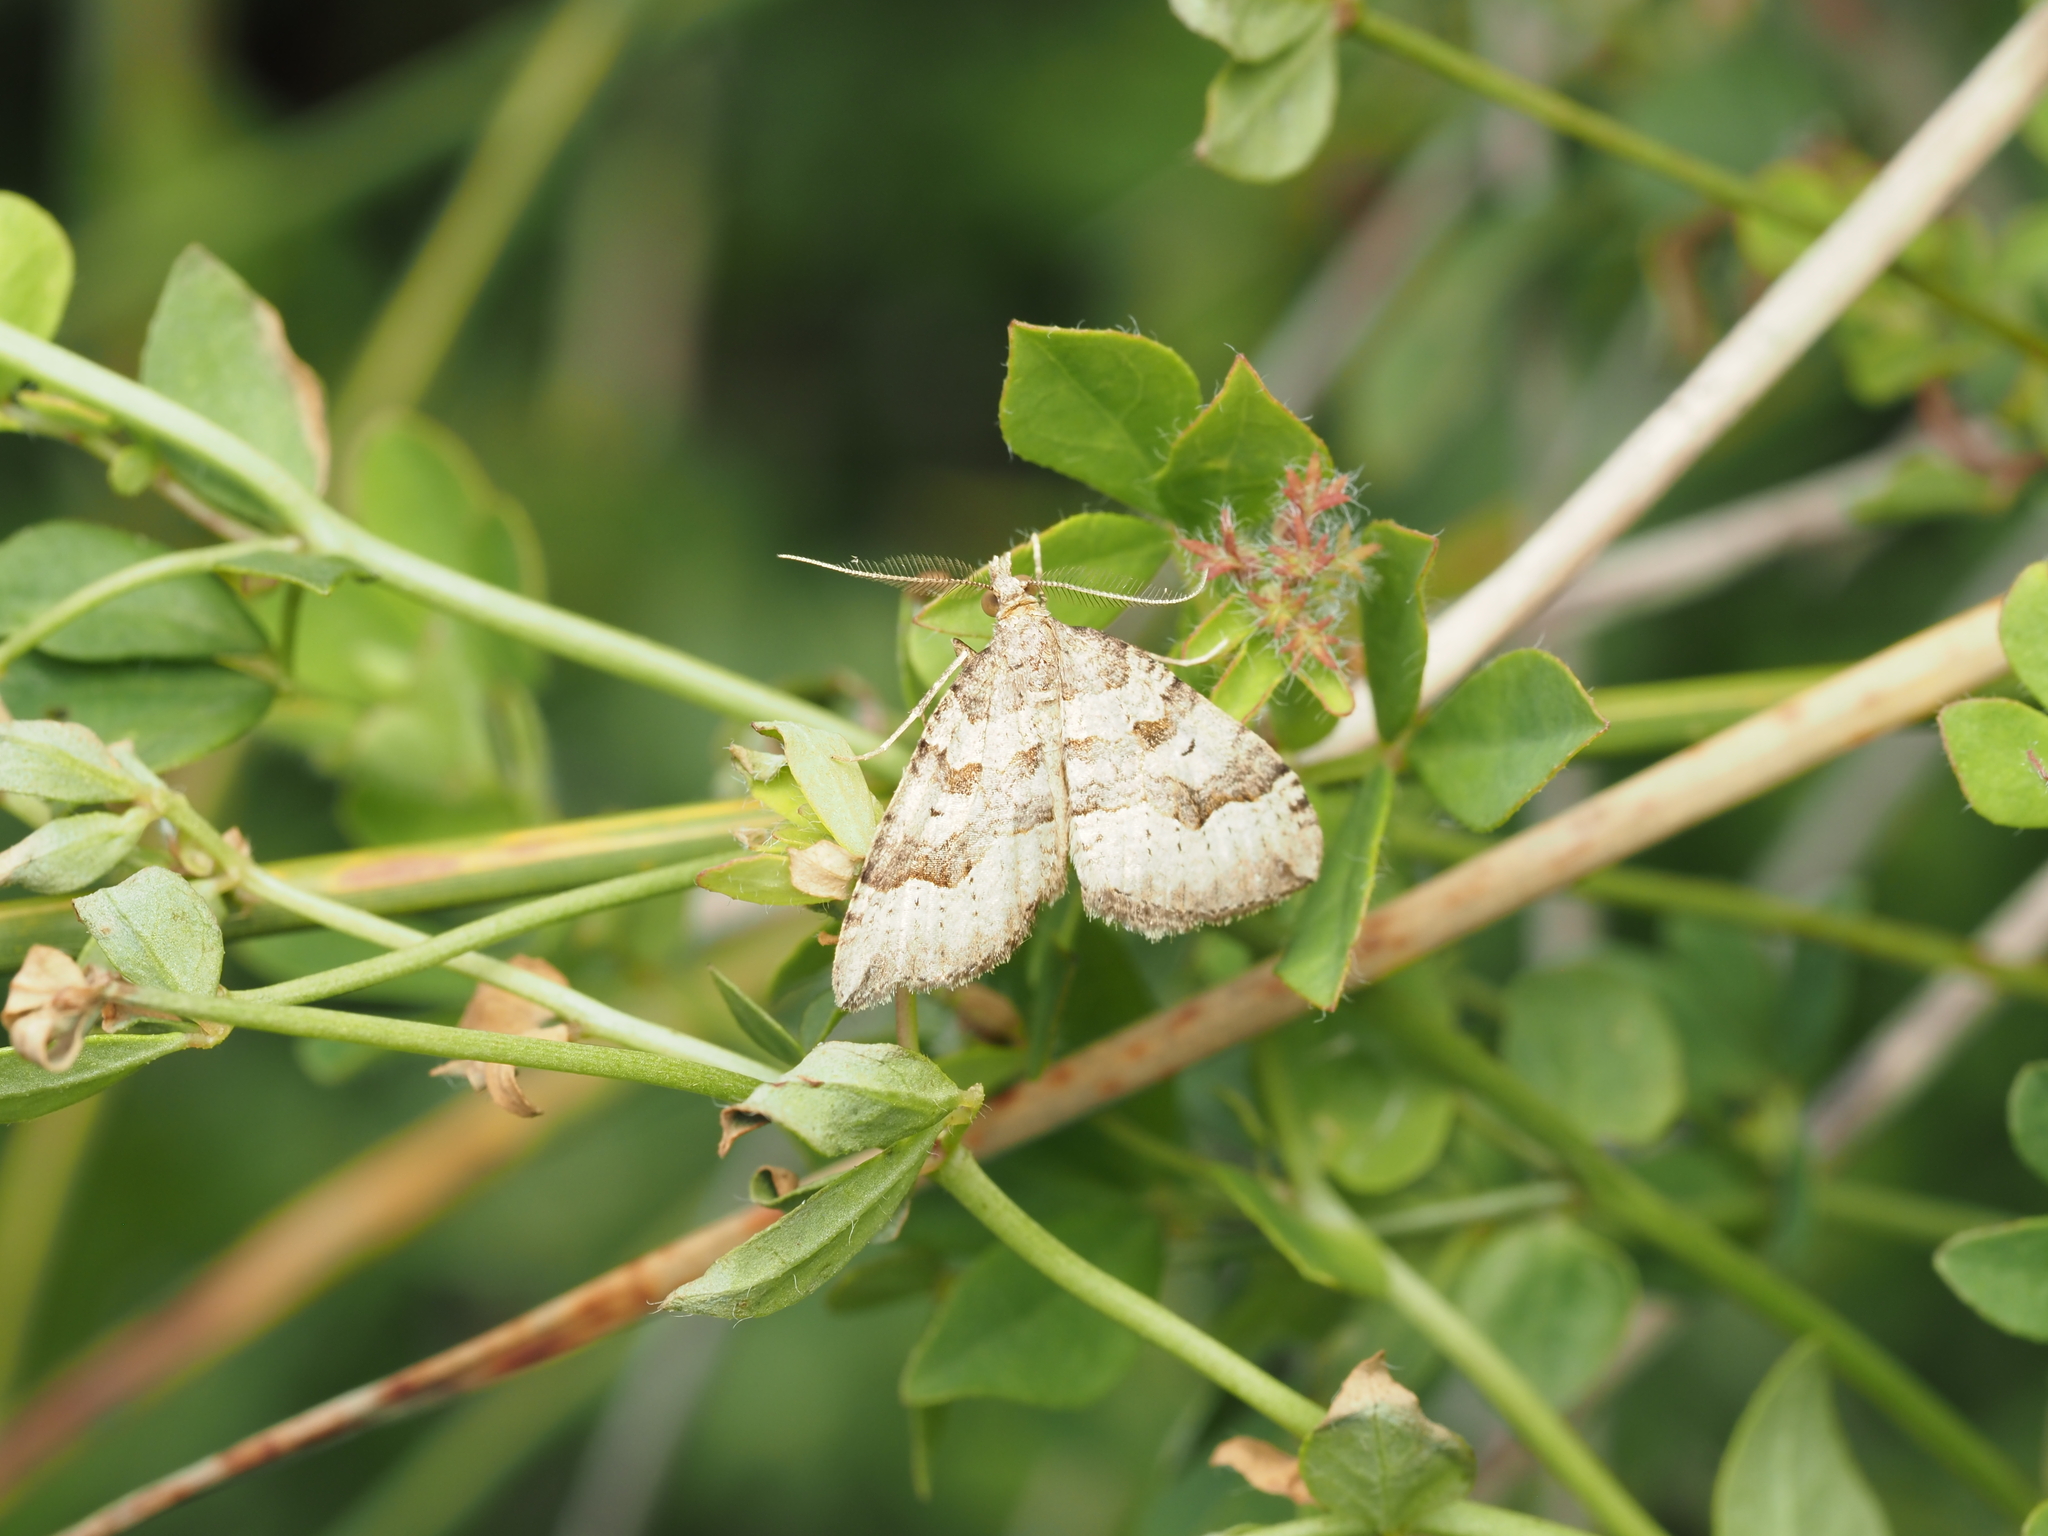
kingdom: Animalia
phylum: Arthropoda
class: Insecta
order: Lepidoptera
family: Geometridae
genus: Epyaxa
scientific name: Epyaxa rosearia
